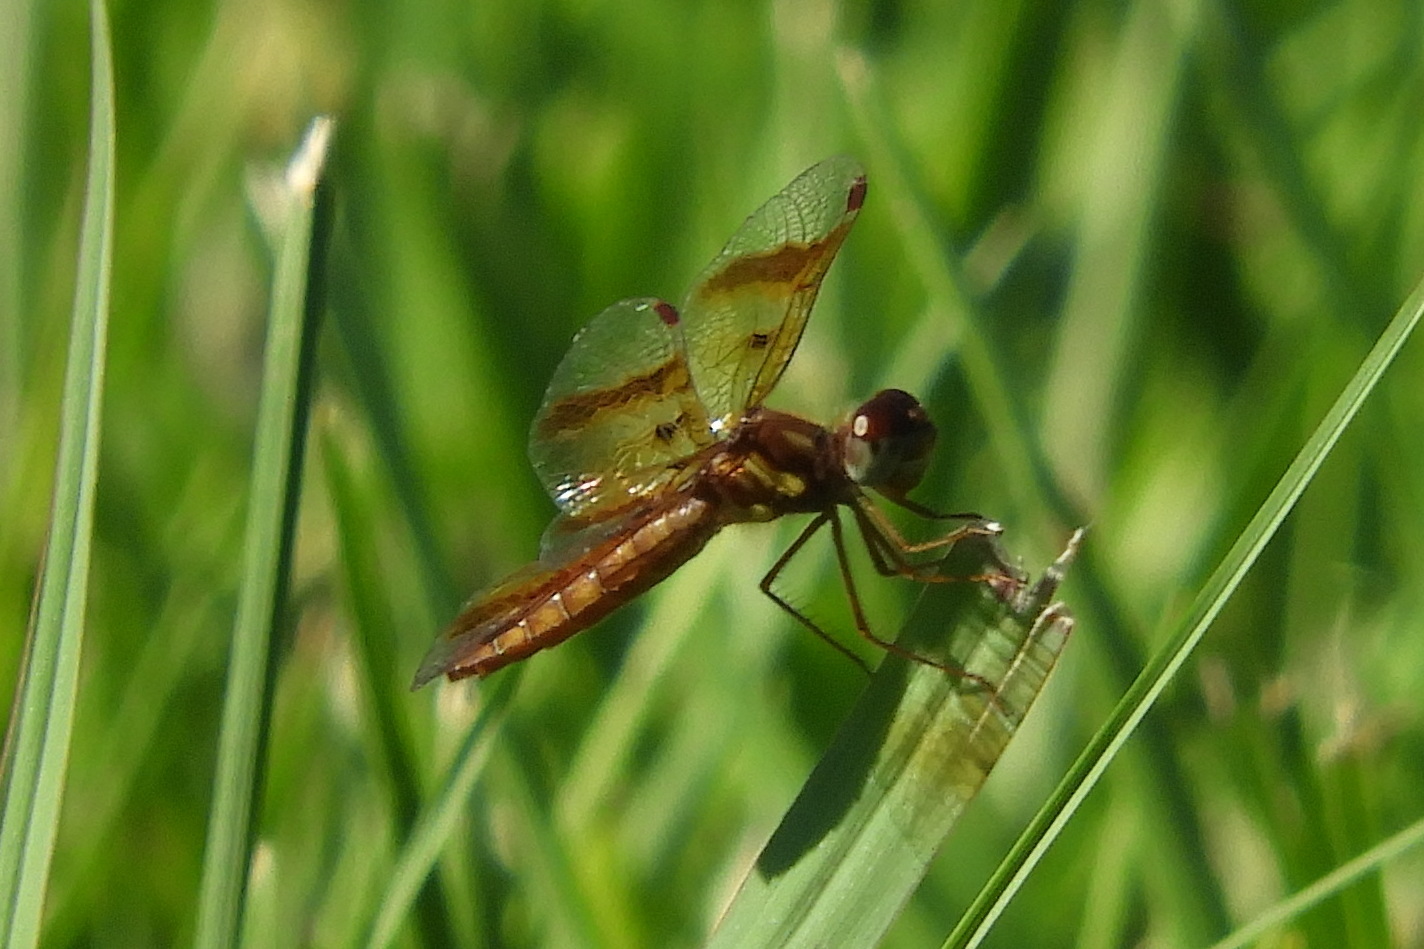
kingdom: Animalia
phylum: Arthropoda
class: Insecta
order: Odonata
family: Libellulidae
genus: Perithemis
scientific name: Perithemis tenera
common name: Eastern amberwing
